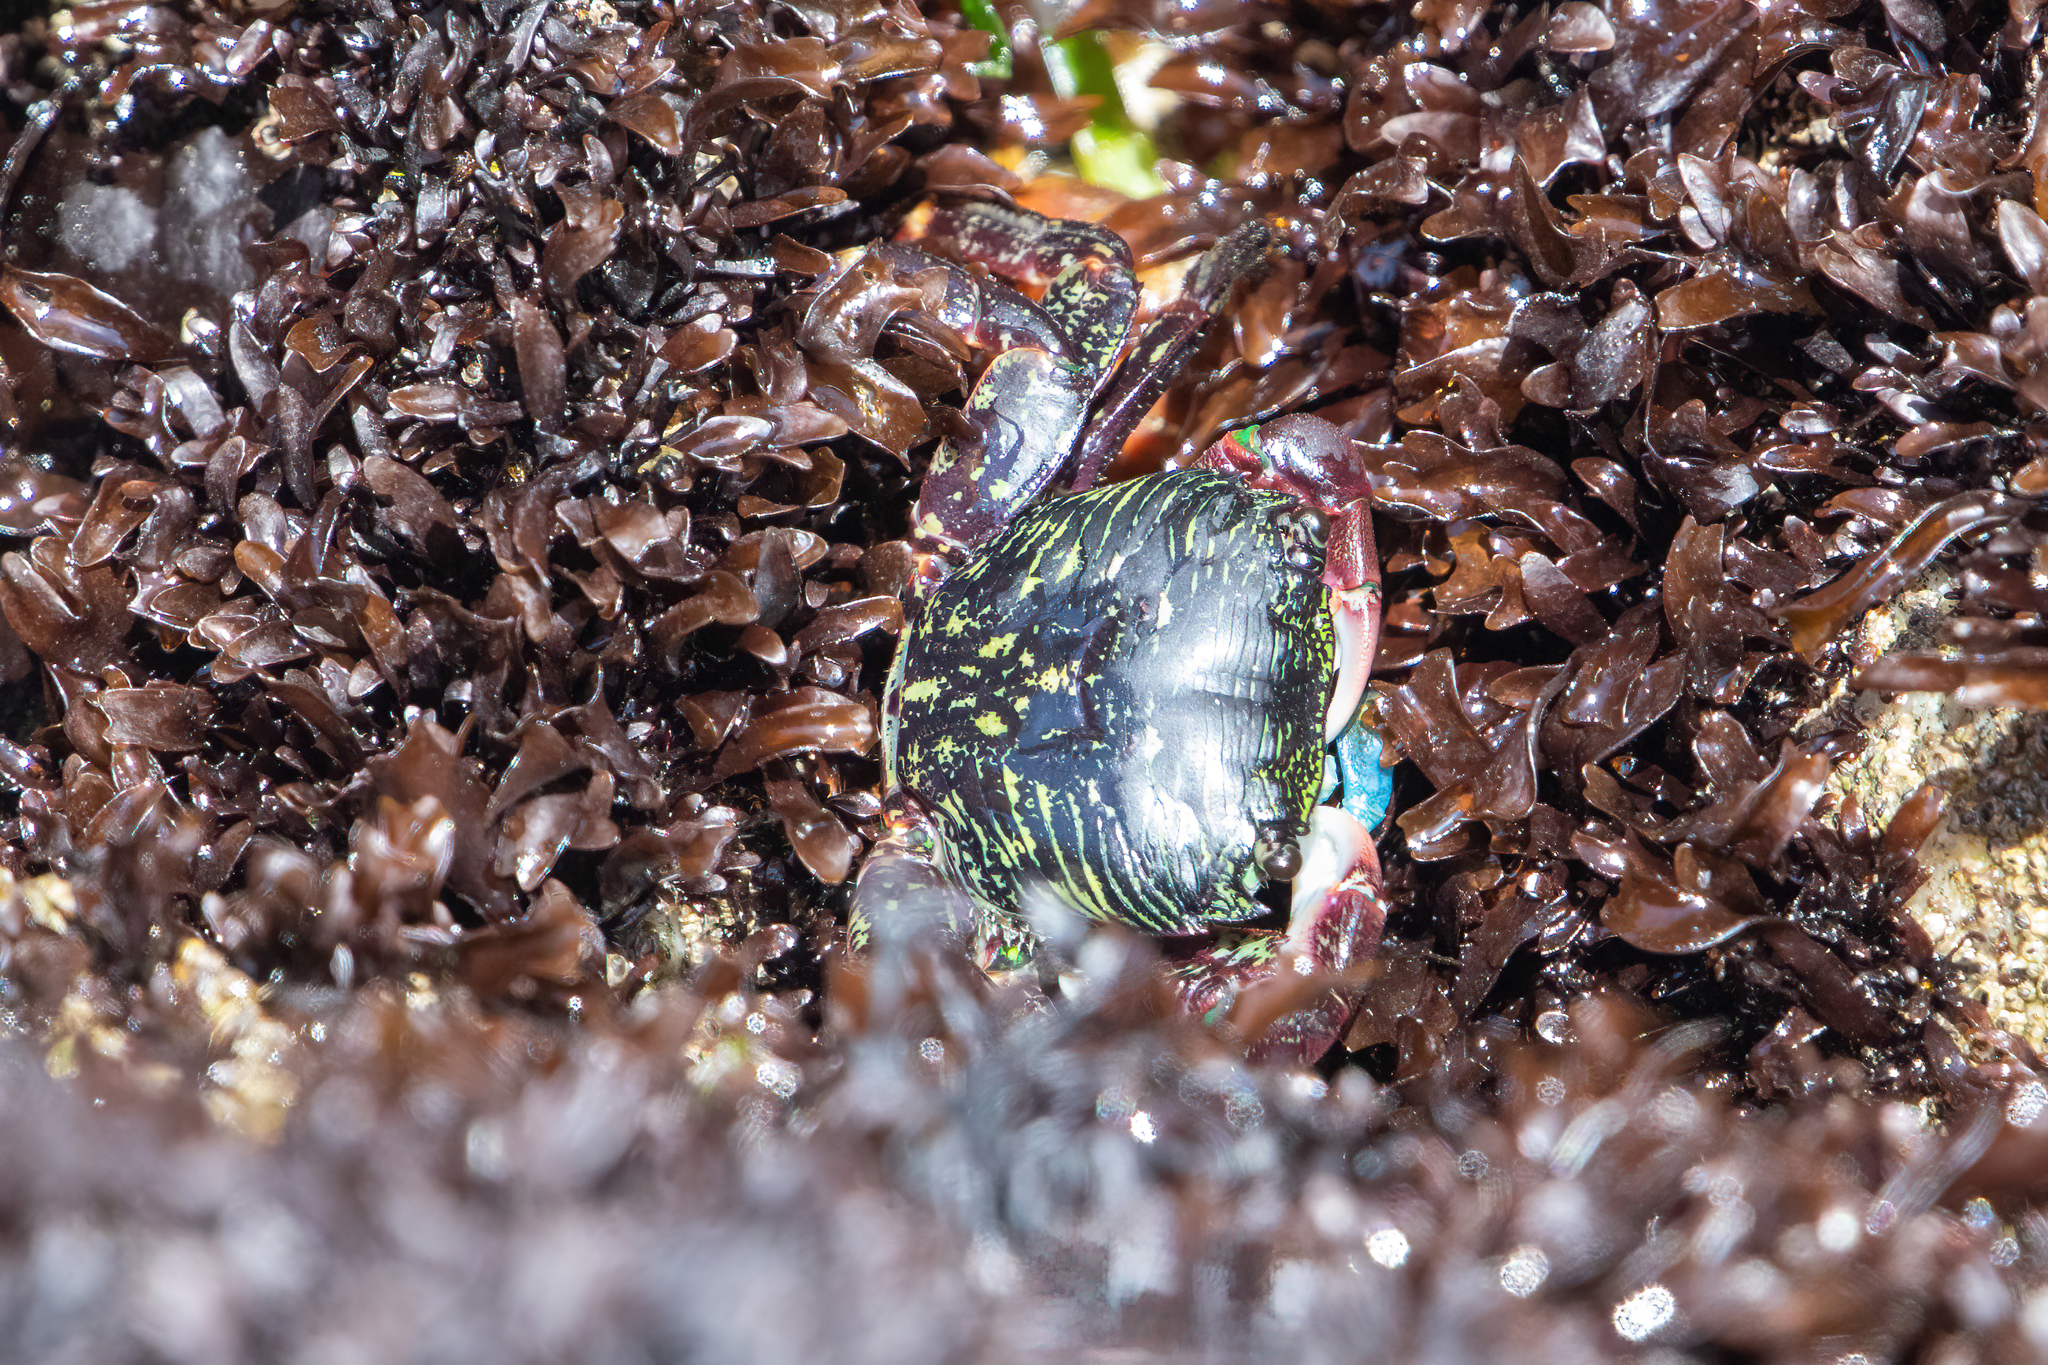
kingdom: Animalia
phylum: Arthropoda
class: Malacostraca
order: Decapoda
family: Grapsidae
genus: Pachygrapsus
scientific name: Pachygrapsus crassipes
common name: Striped shore crab
